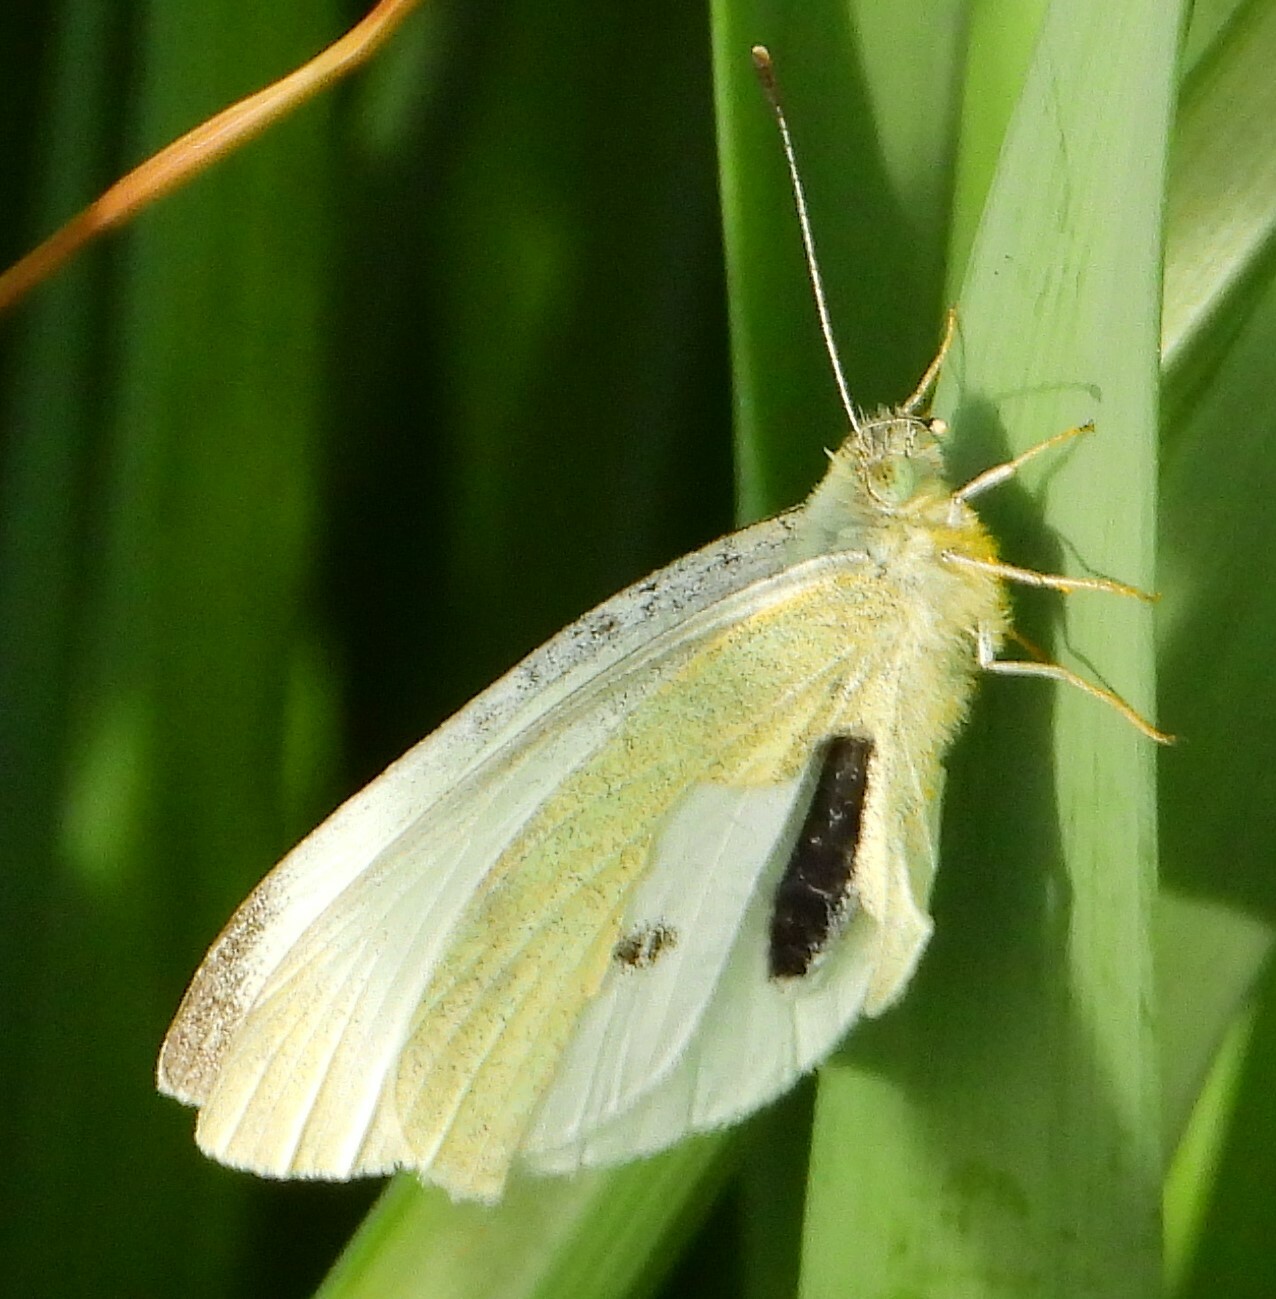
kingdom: Animalia
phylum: Arthropoda
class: Insecta
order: Lepidoptera
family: Pieridae
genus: Pieris
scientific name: Pieris rapae
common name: Small white
